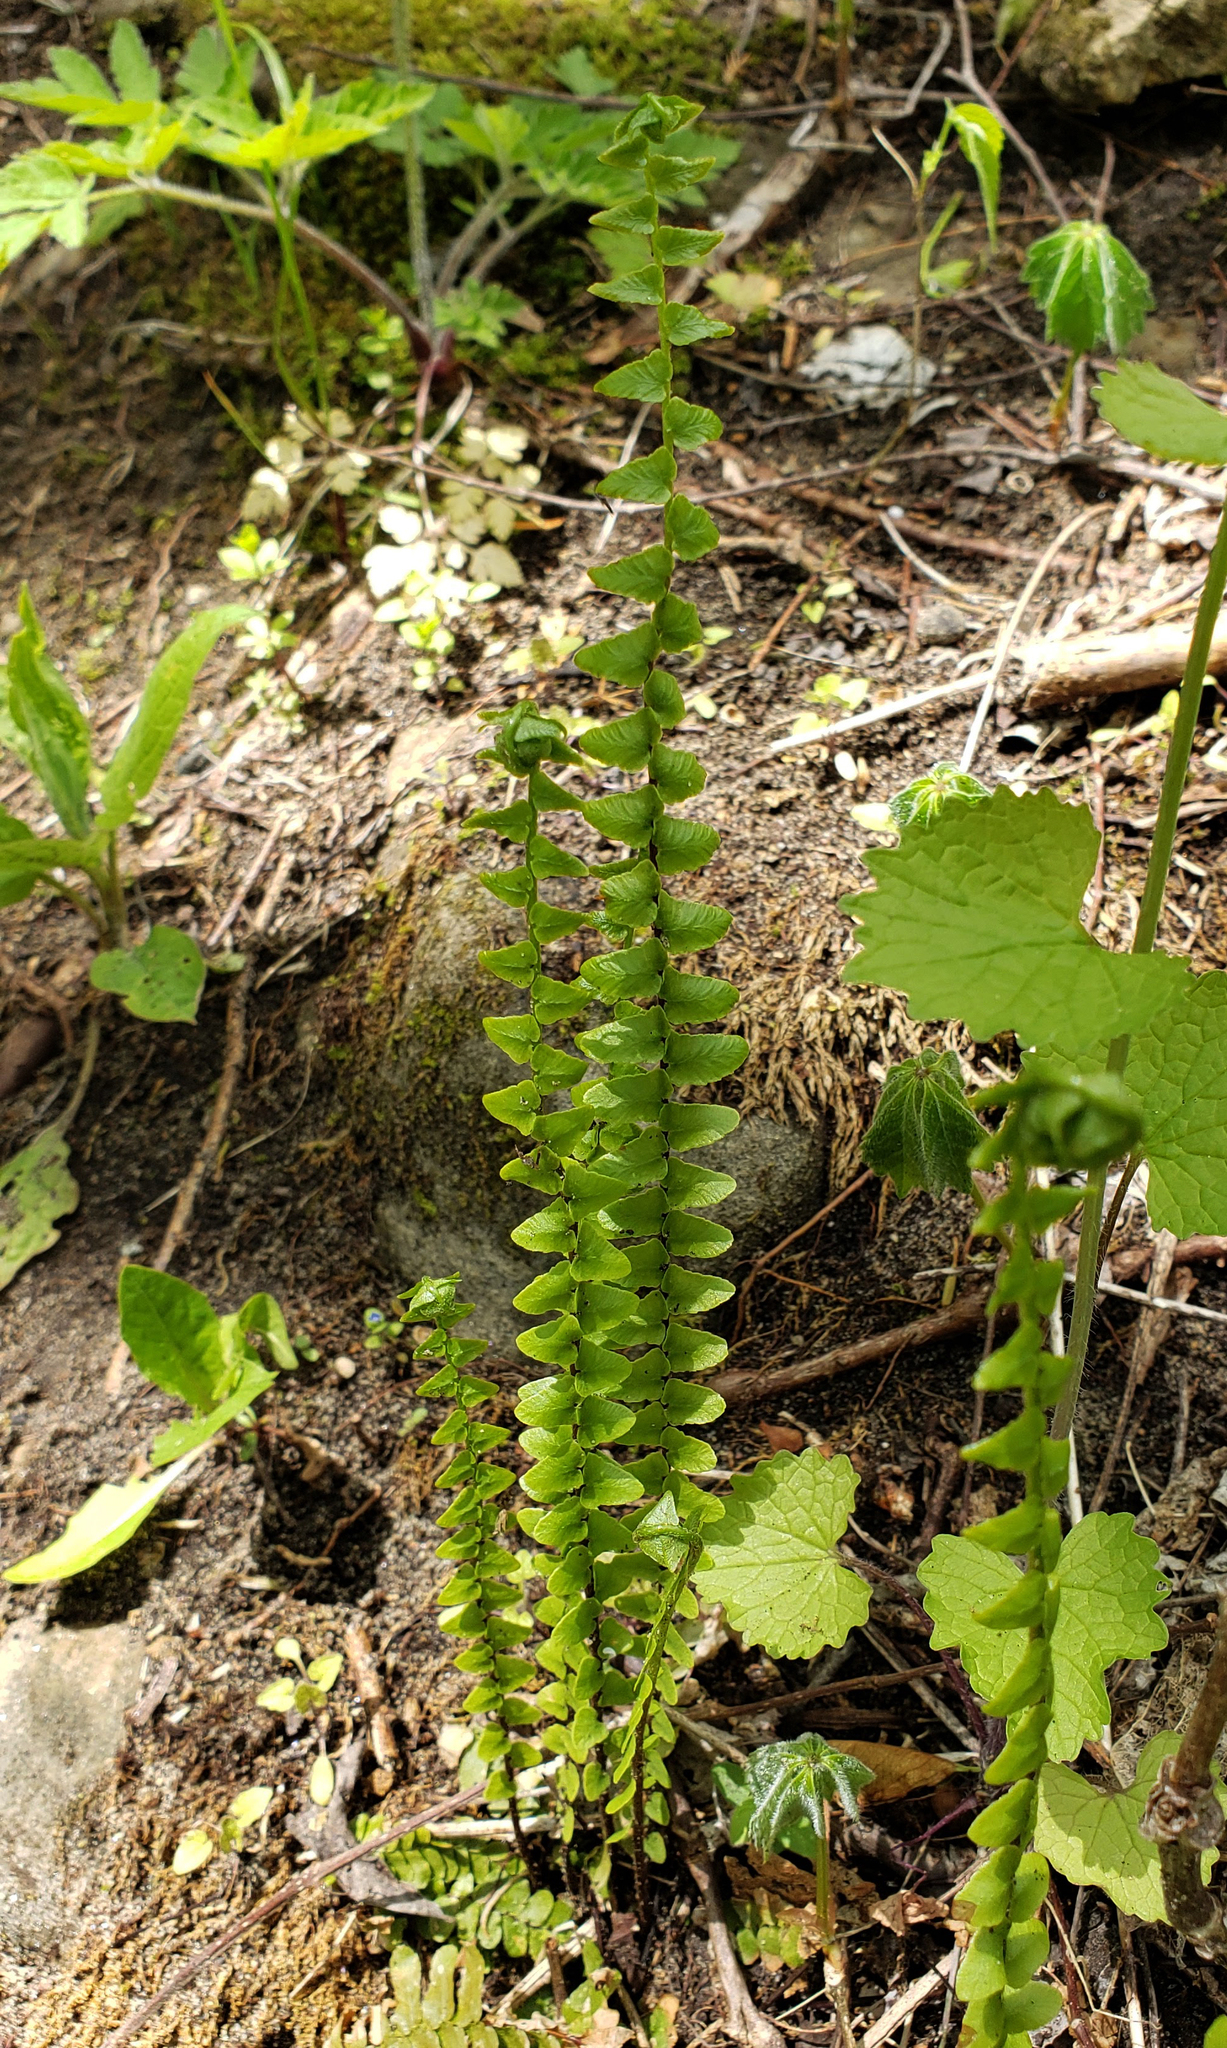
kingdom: Plantae
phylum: Tracheophyta
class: Polypodiopsida
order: Polypodiales
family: Aspleniaceae
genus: Asplenium
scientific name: Asplenium platyneuron
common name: Ebony spleenwort
